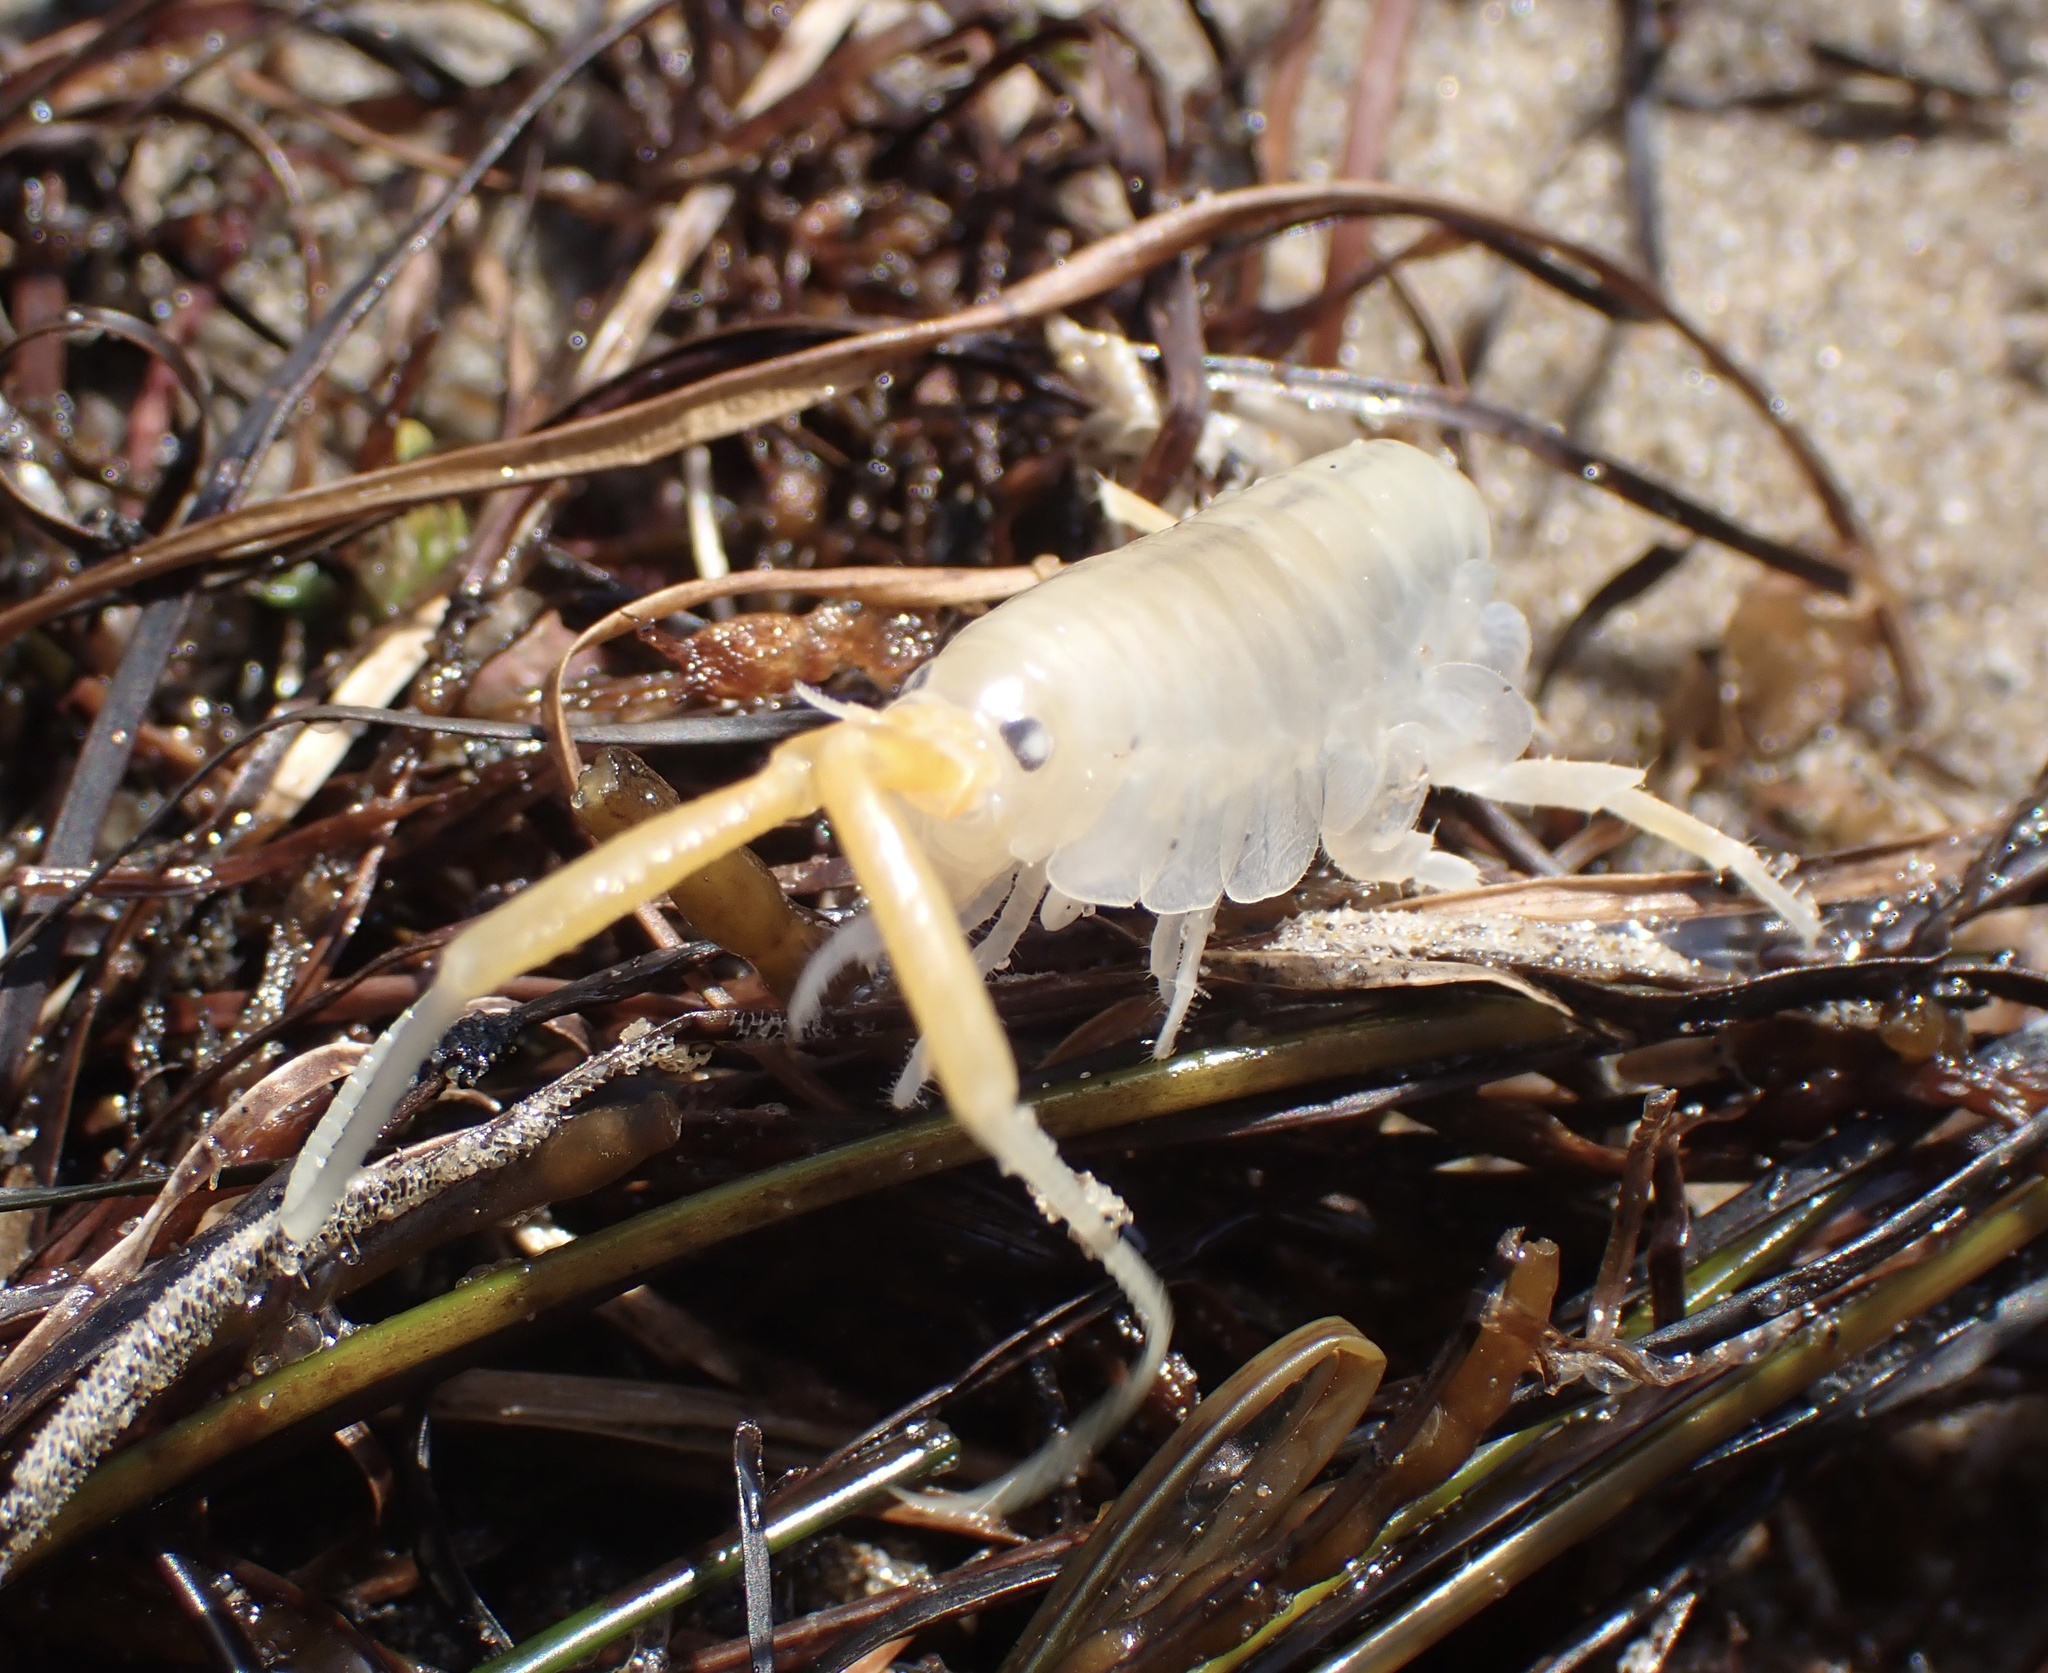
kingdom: Animalia
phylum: Arthropoda
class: Malacostraca
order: Amphipoda
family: Talitridae
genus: Megalorchestia
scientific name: Megalorchestia corniculata
